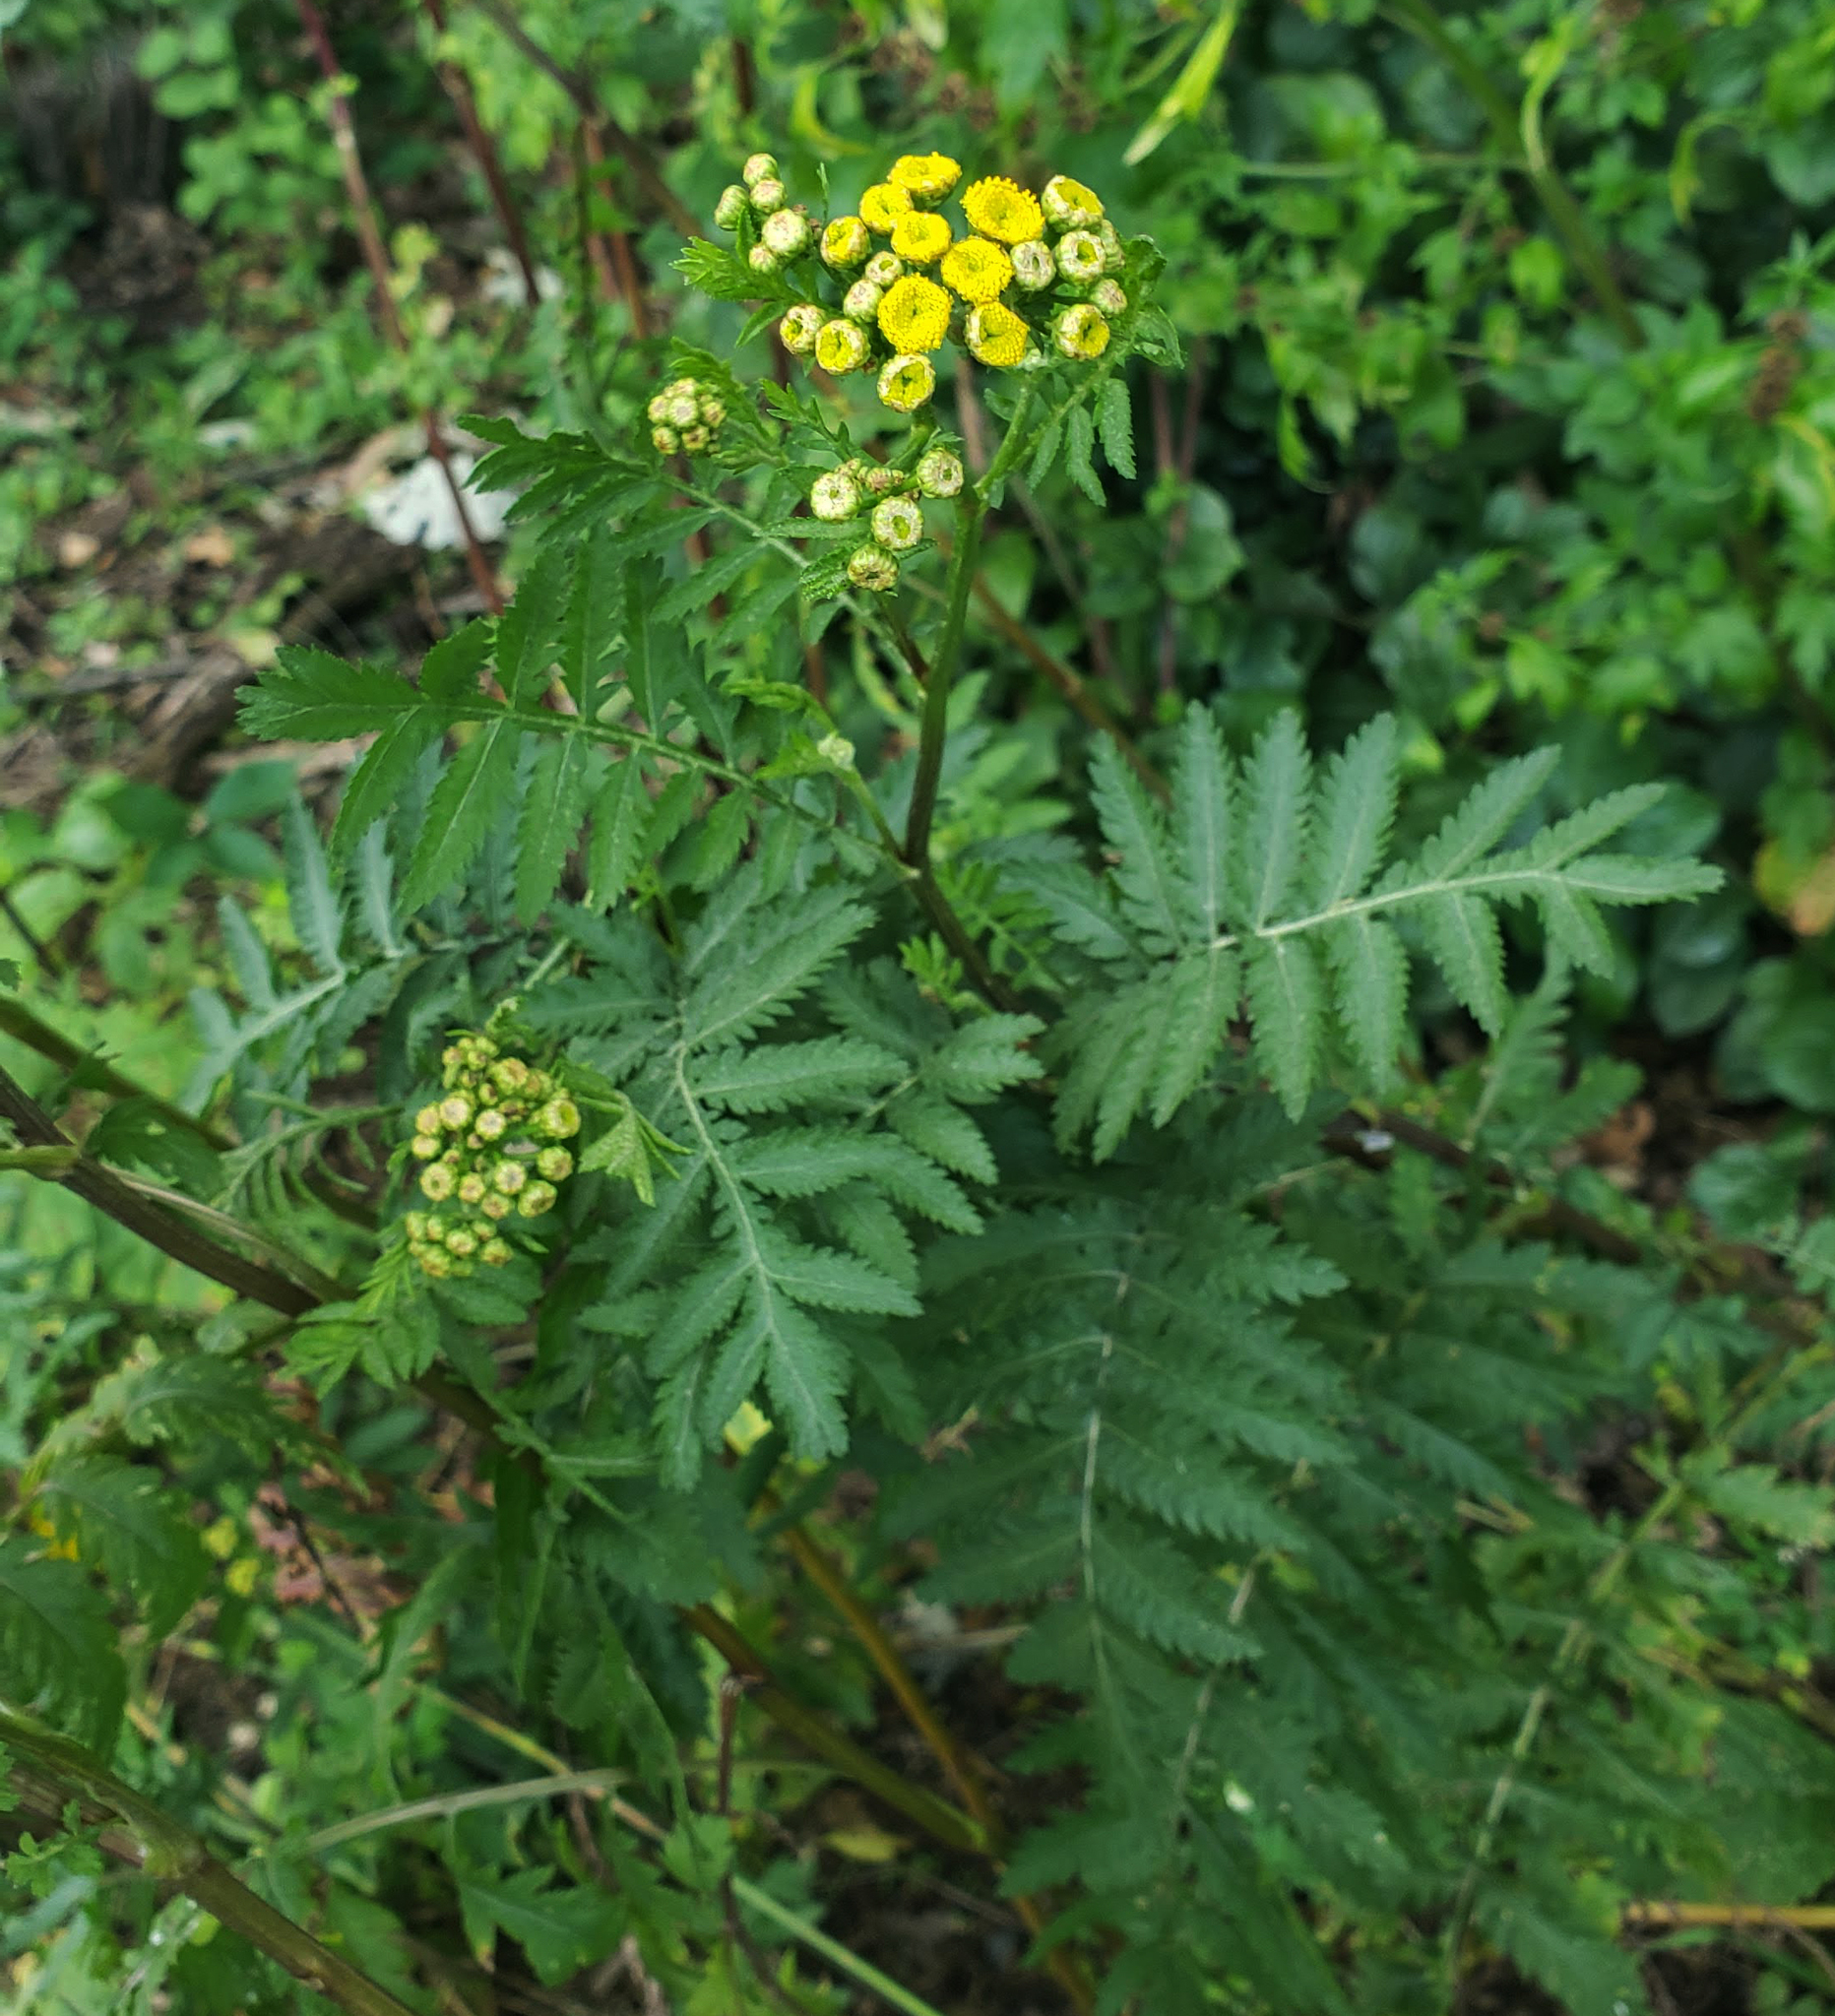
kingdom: Plantae
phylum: Tracheophyta
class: Magnoliopsida
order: Asterales
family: Asteraceae
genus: Tanacetum
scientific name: Tanacetum vulgare
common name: Common tansy
